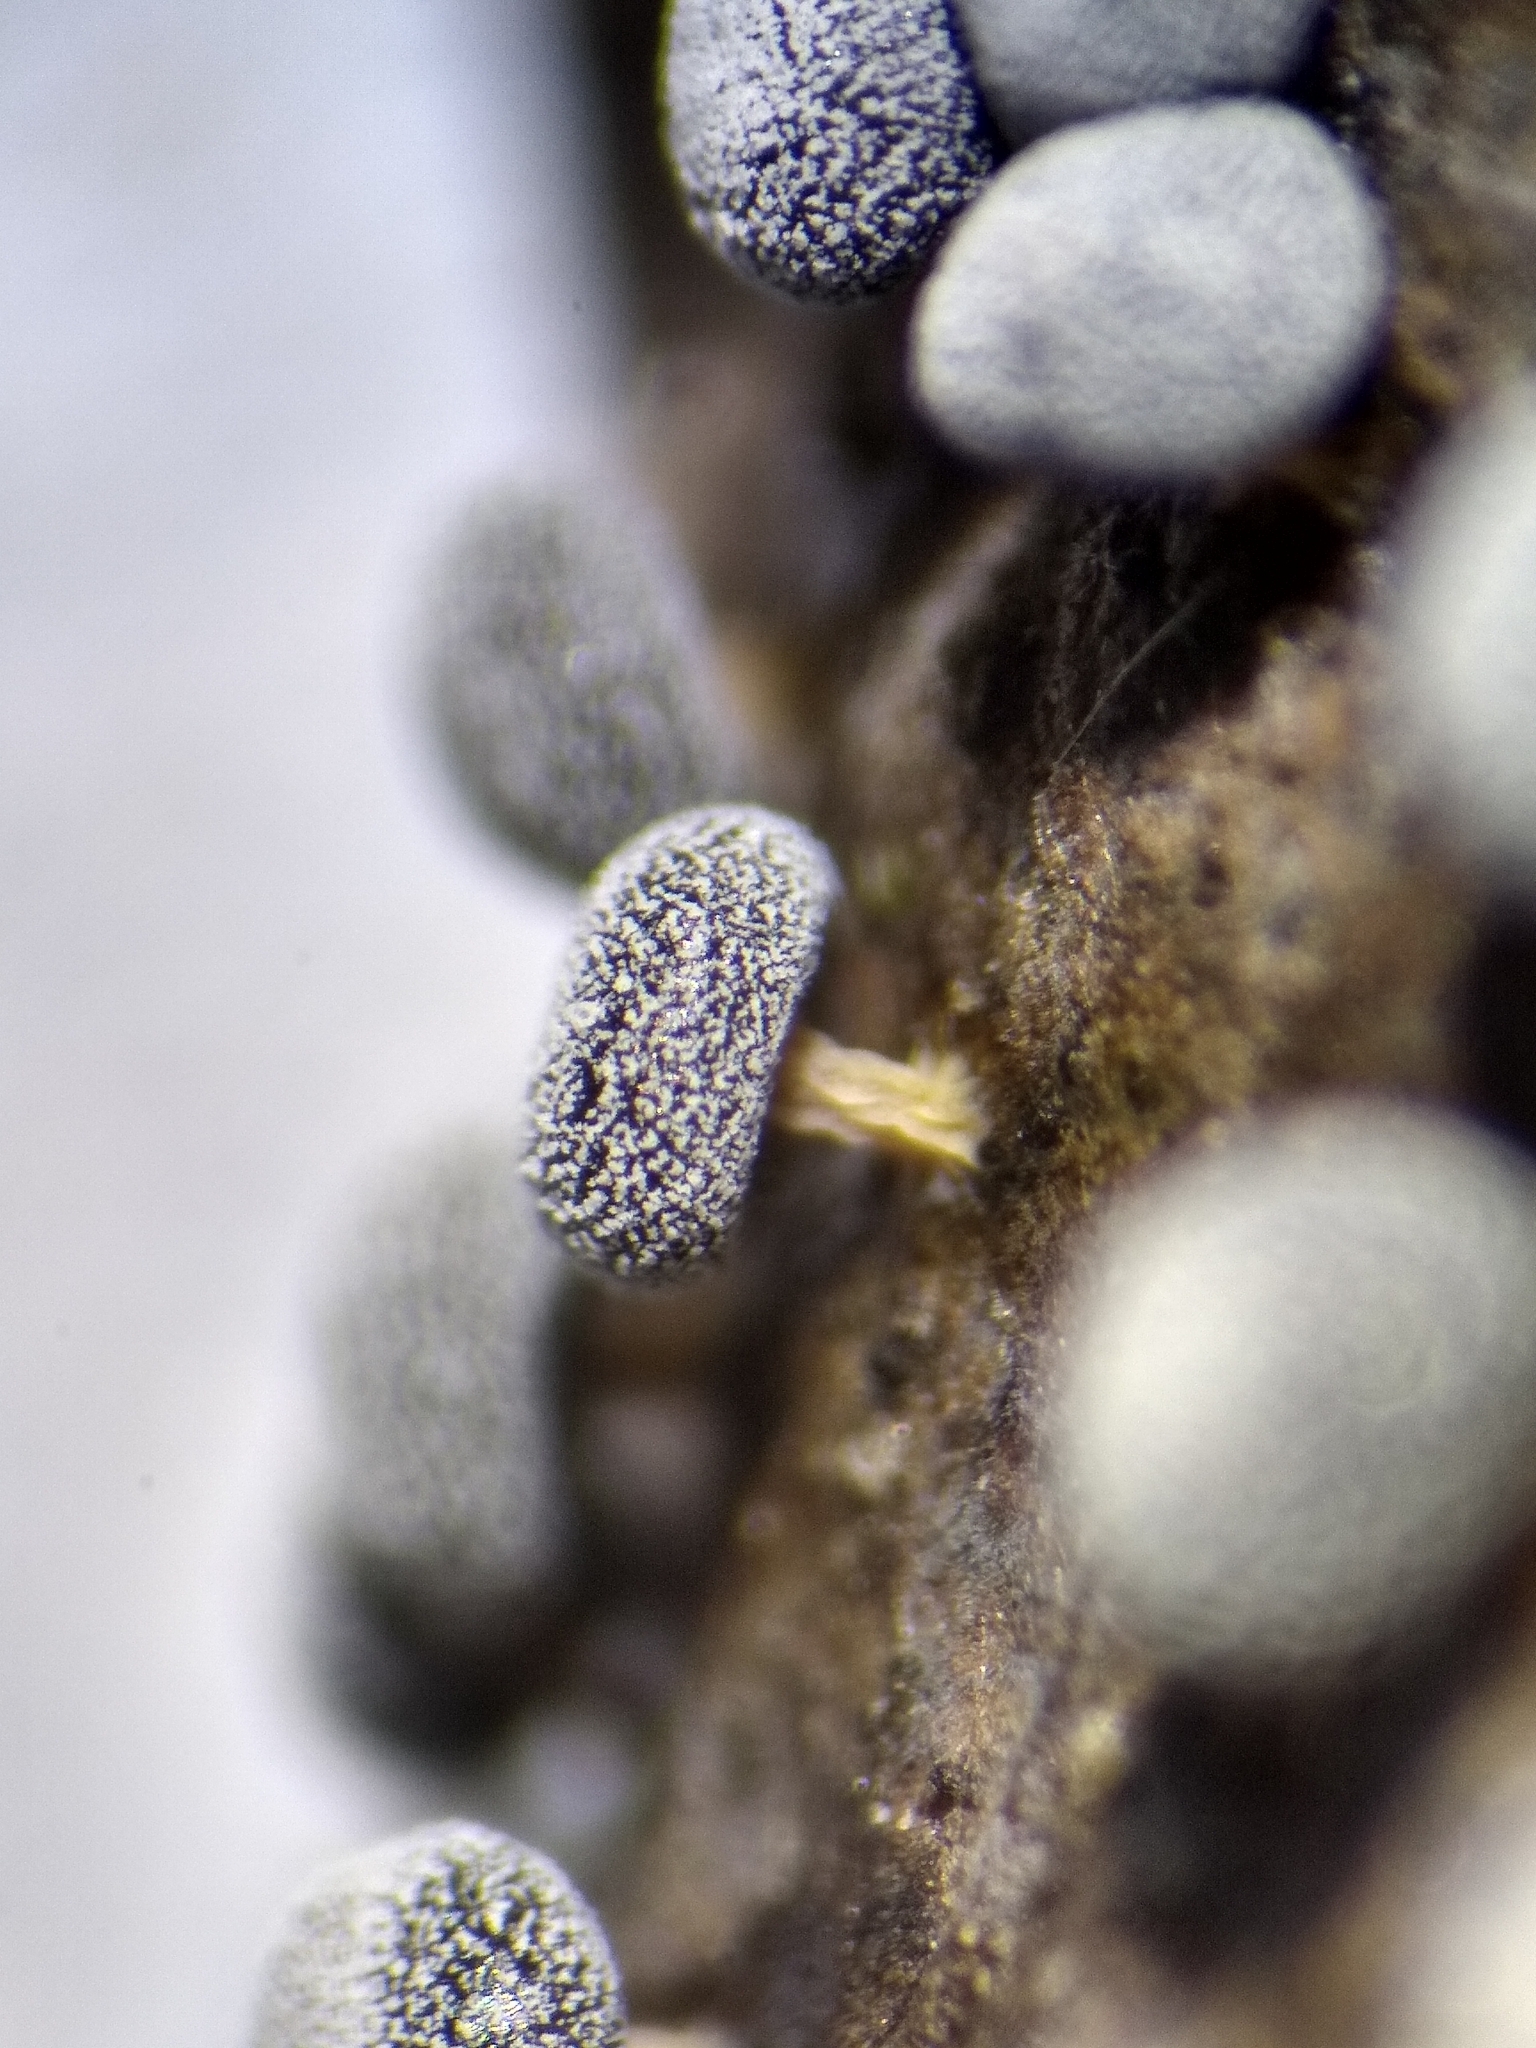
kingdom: Protozoa
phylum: Mycetozoa
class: Myxomycetes
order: Physarales
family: Didymiaceae
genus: Didymium
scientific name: Didymium squamulosum
